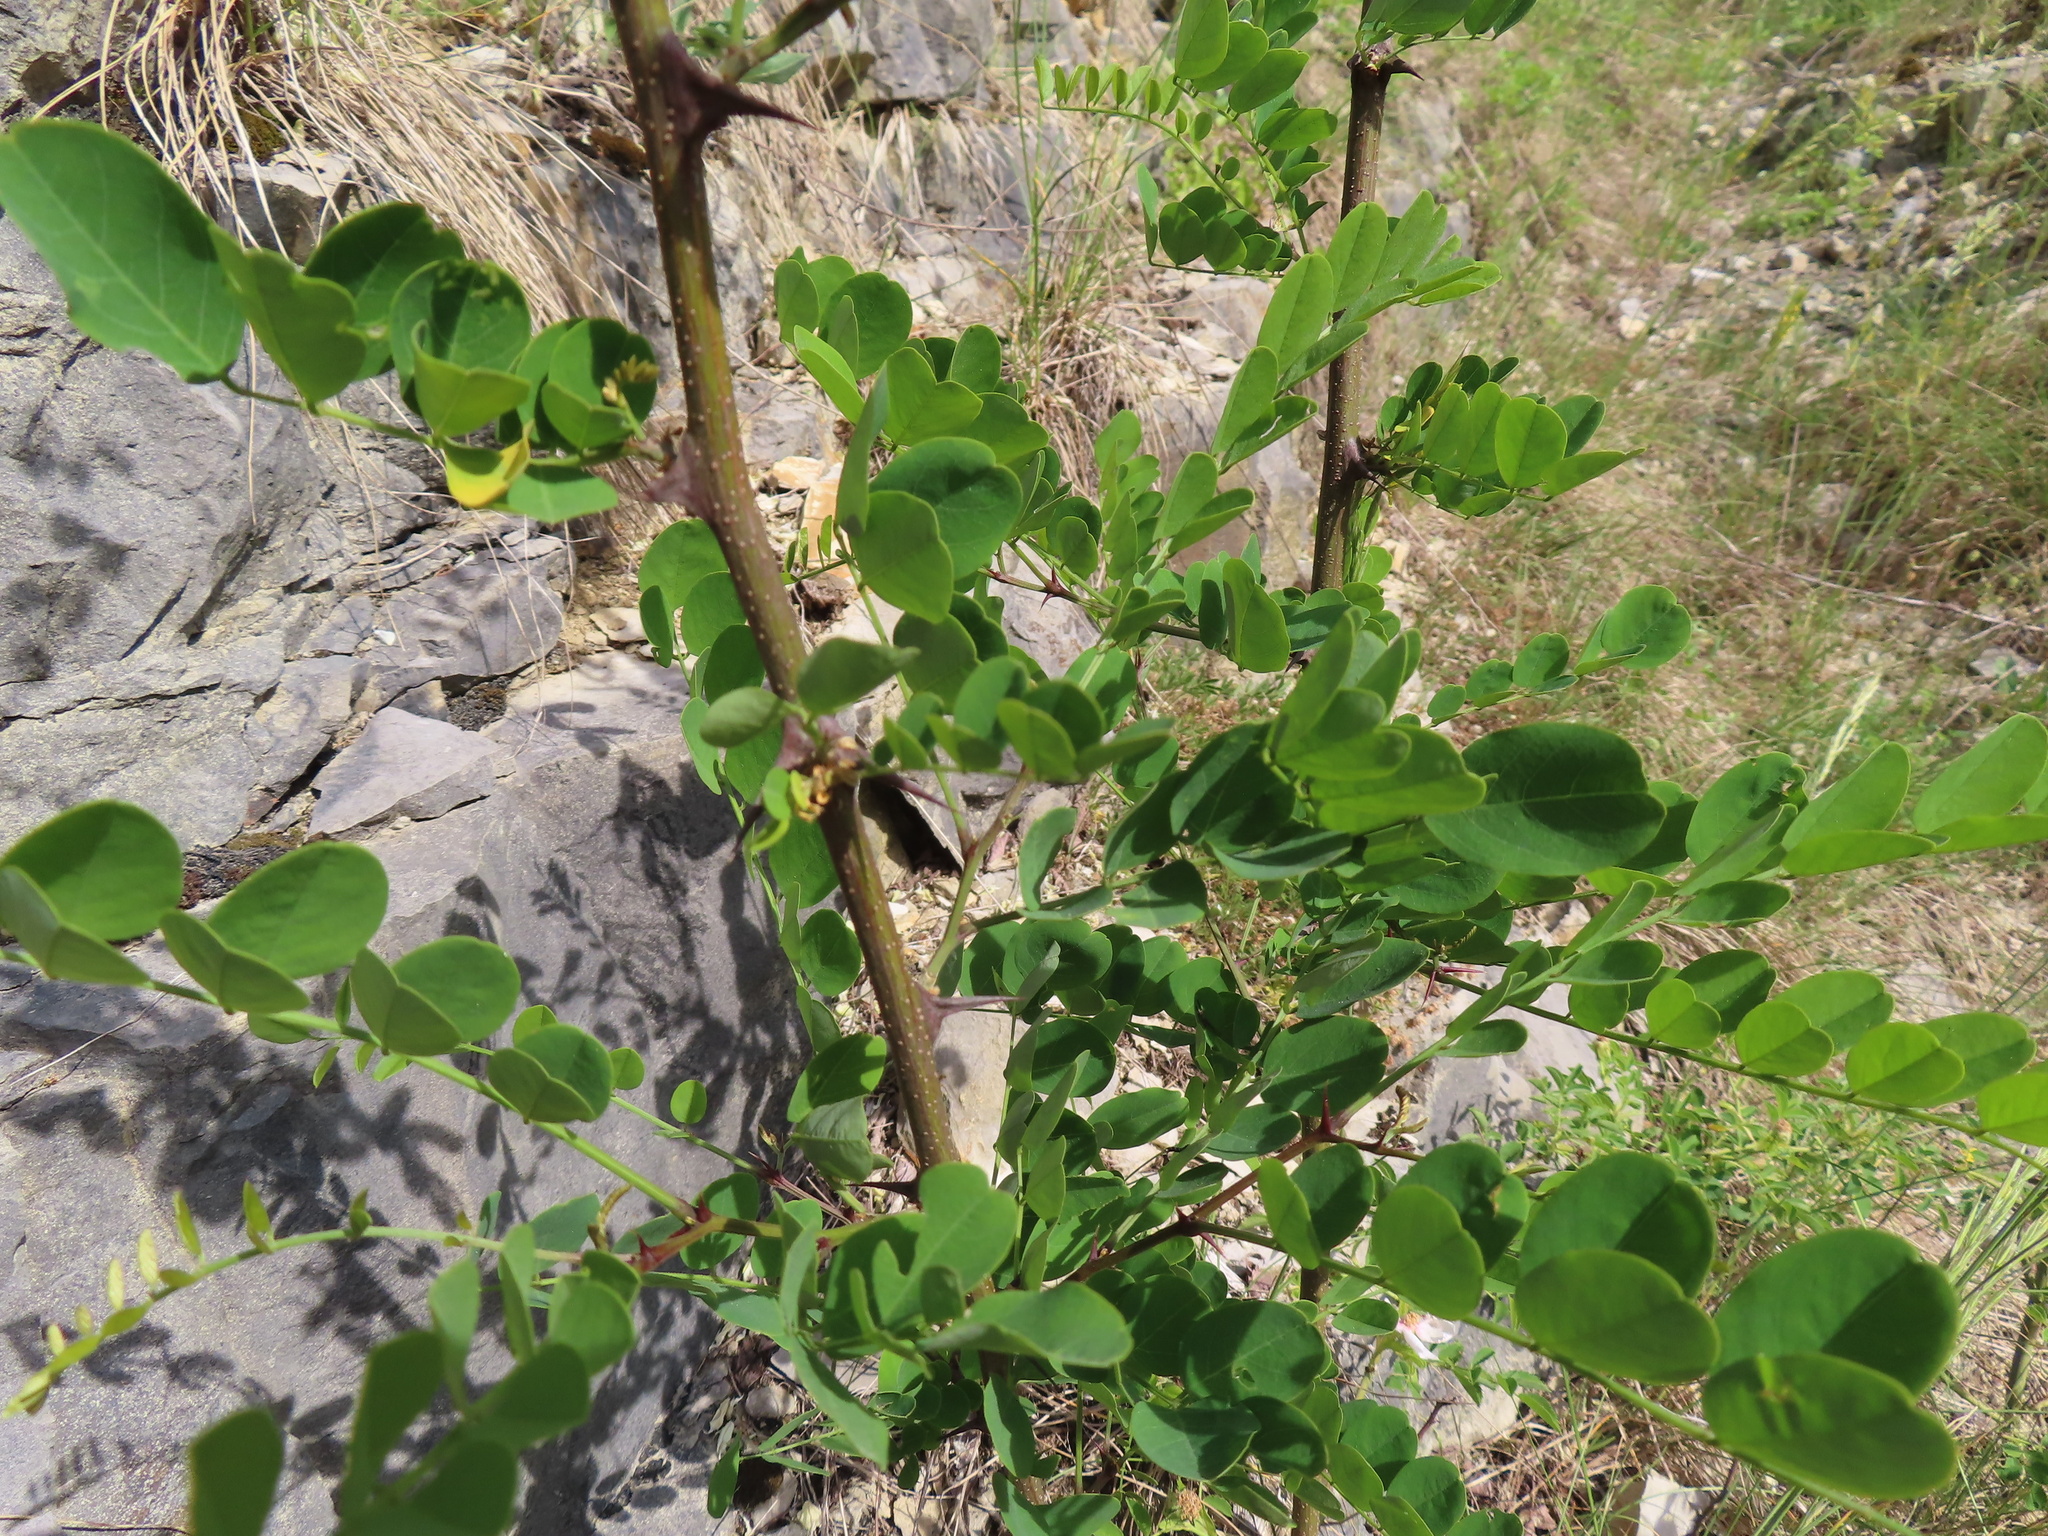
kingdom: Plantae
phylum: Tracheophyta
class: Magnoliopsida
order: Fabales
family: Fabaceae
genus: Robinia
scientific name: Robinia pseudoacacia
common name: Black locust
